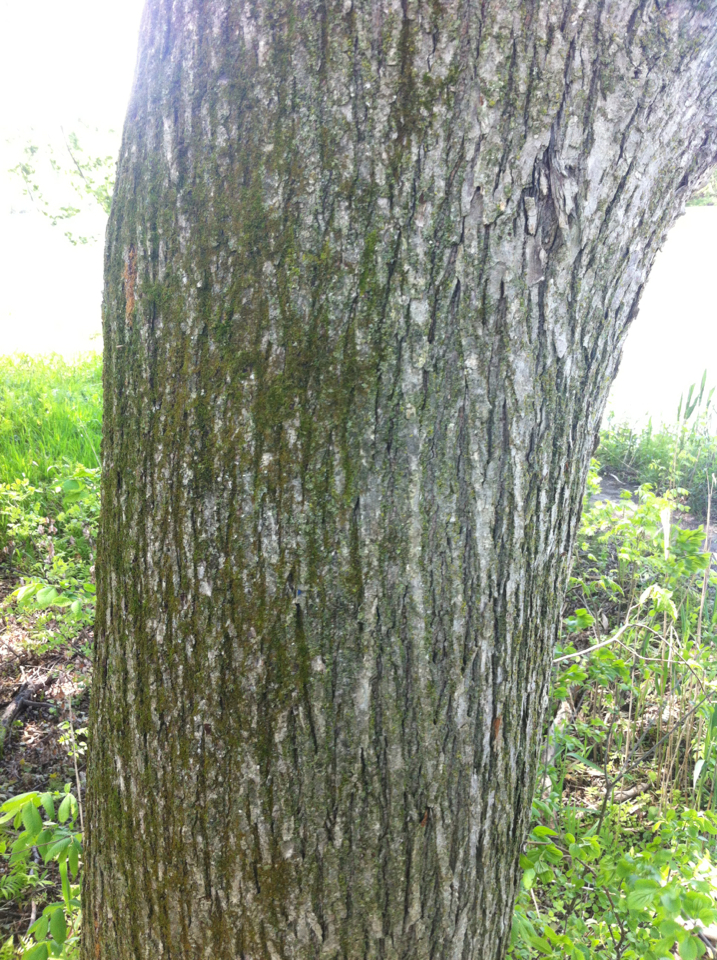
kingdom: Plantae
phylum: Tracheophyta
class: Magnoliopsida
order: Rosales
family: Ulmaceae
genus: Ulmus
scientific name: Ulmus americana
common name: American elm
